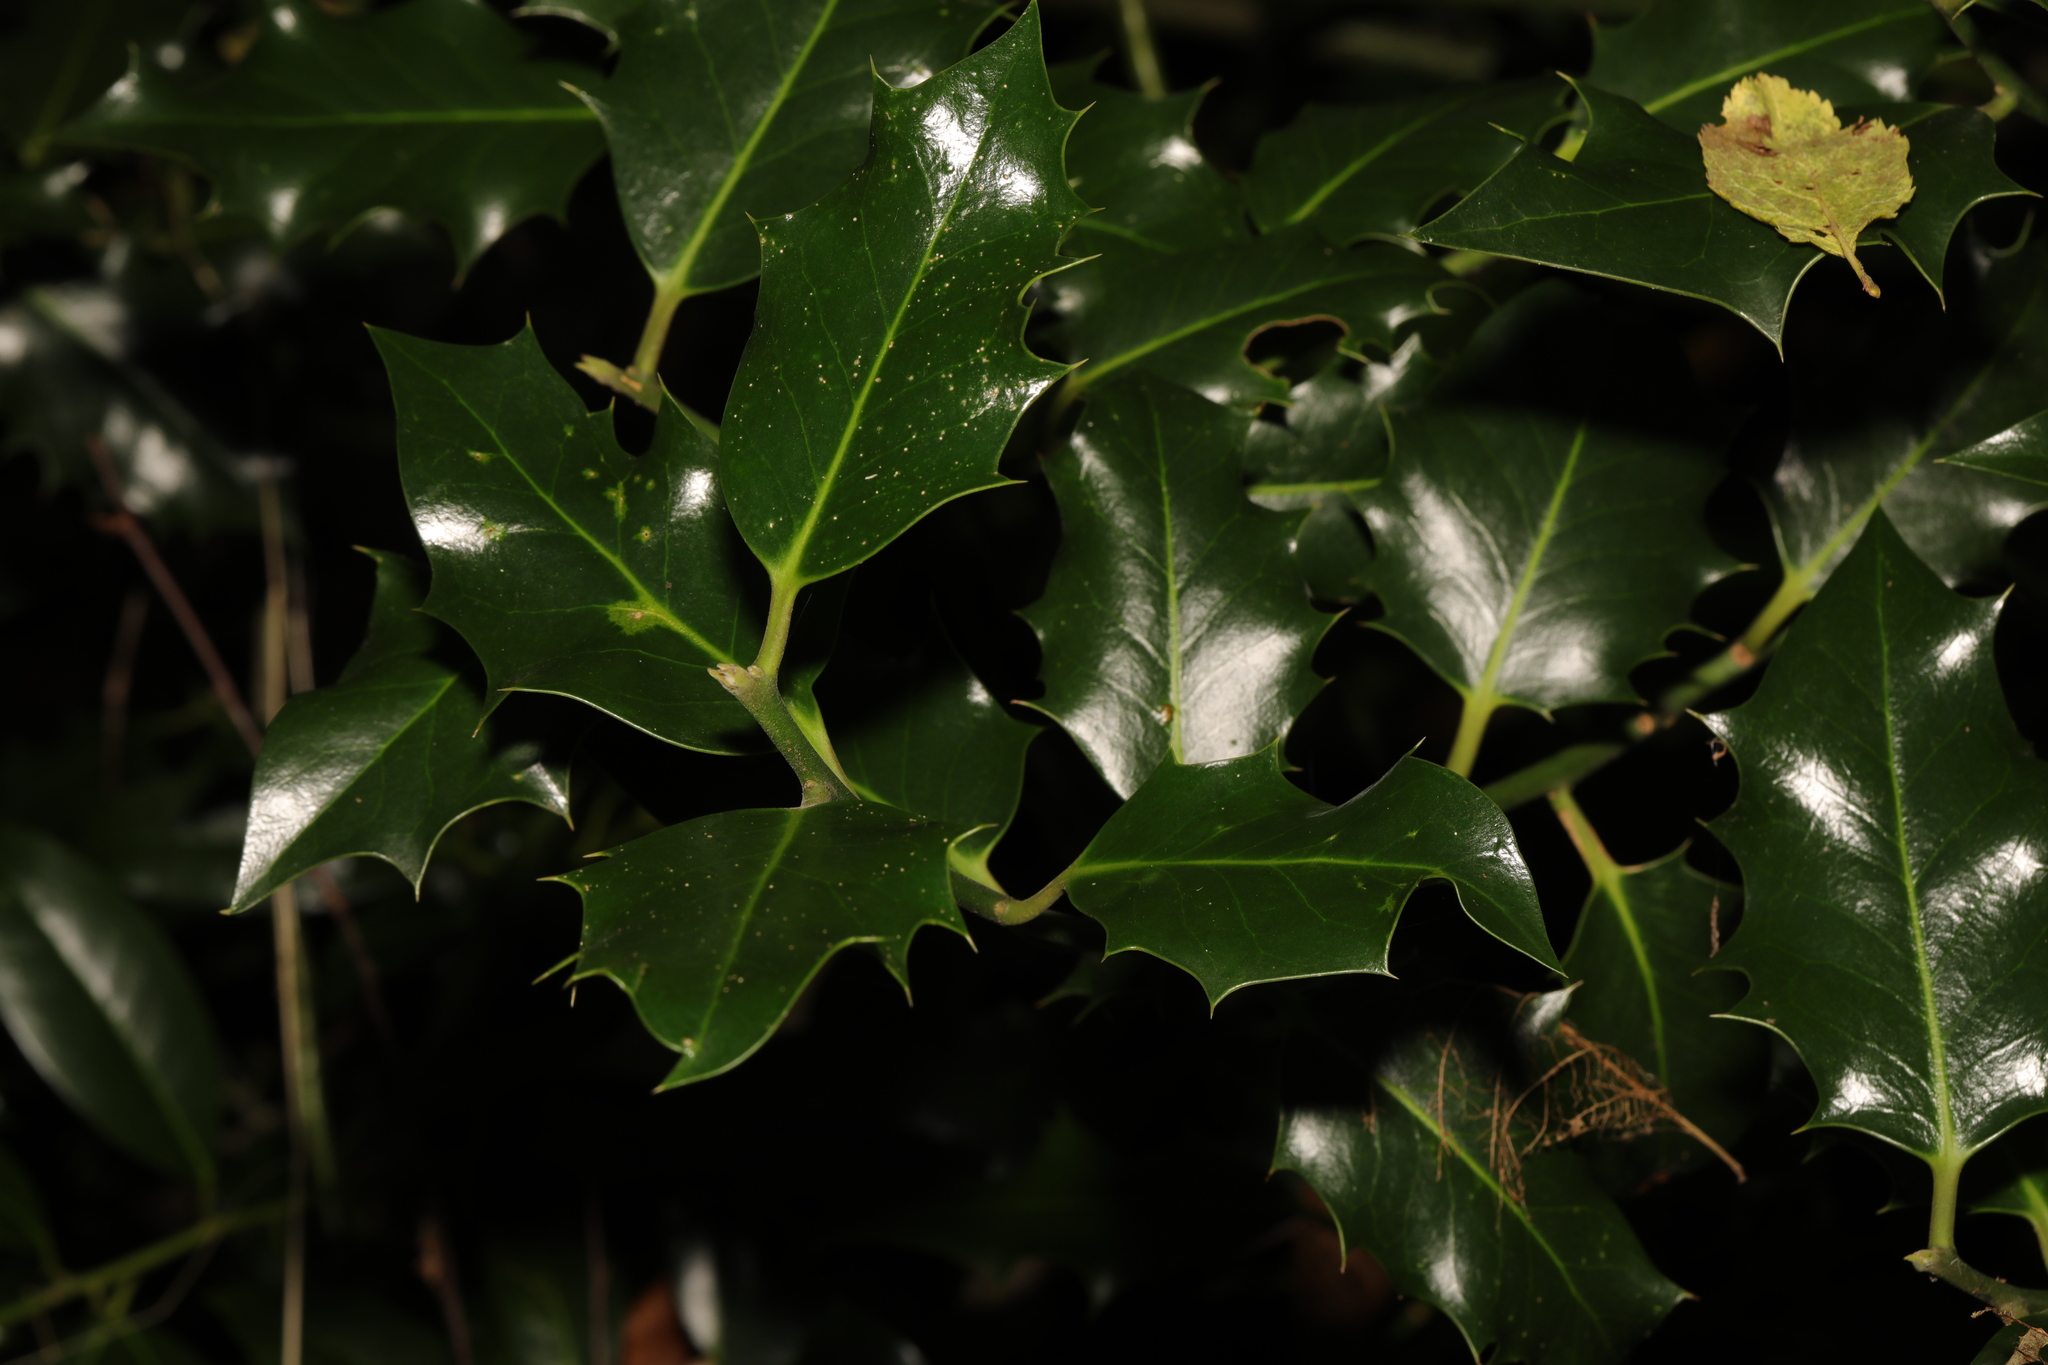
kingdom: Plantae
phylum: Tracheophyta
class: Magnoliopsida
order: Aquifoliales
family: Aquifoliaceae
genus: Ilex
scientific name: Ilex aquifolium
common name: English holly
